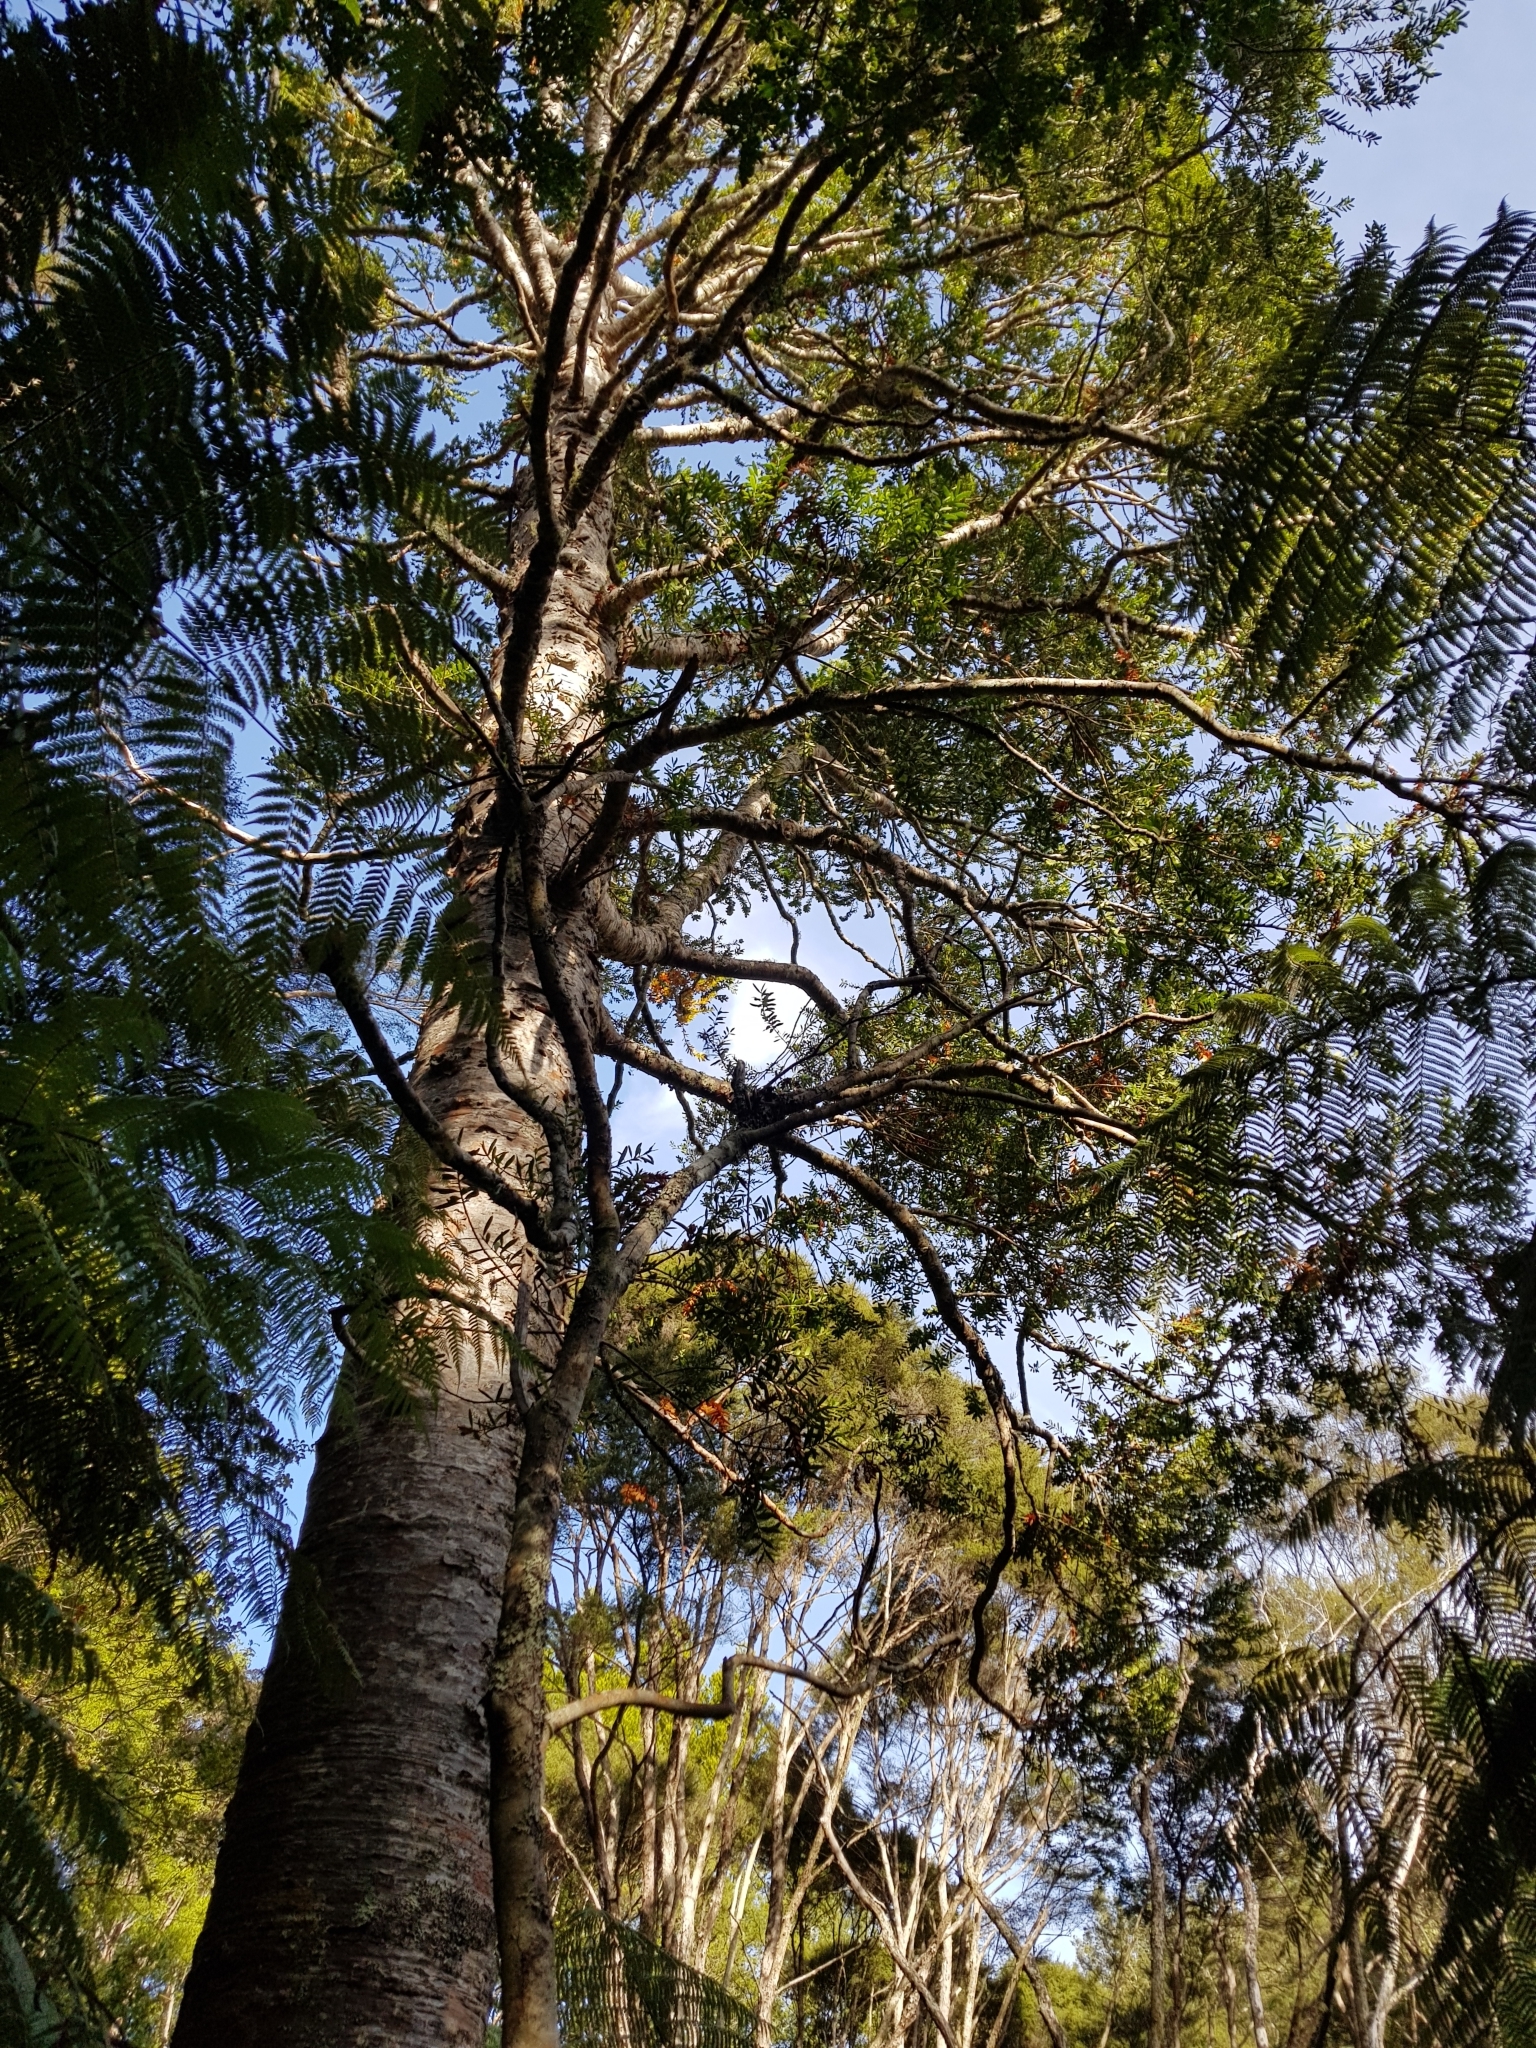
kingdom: Plantae
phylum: Tracheophyta
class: Pinopsida
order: Pinales
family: Araucariaceae
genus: Agathis
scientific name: Agathis australis
